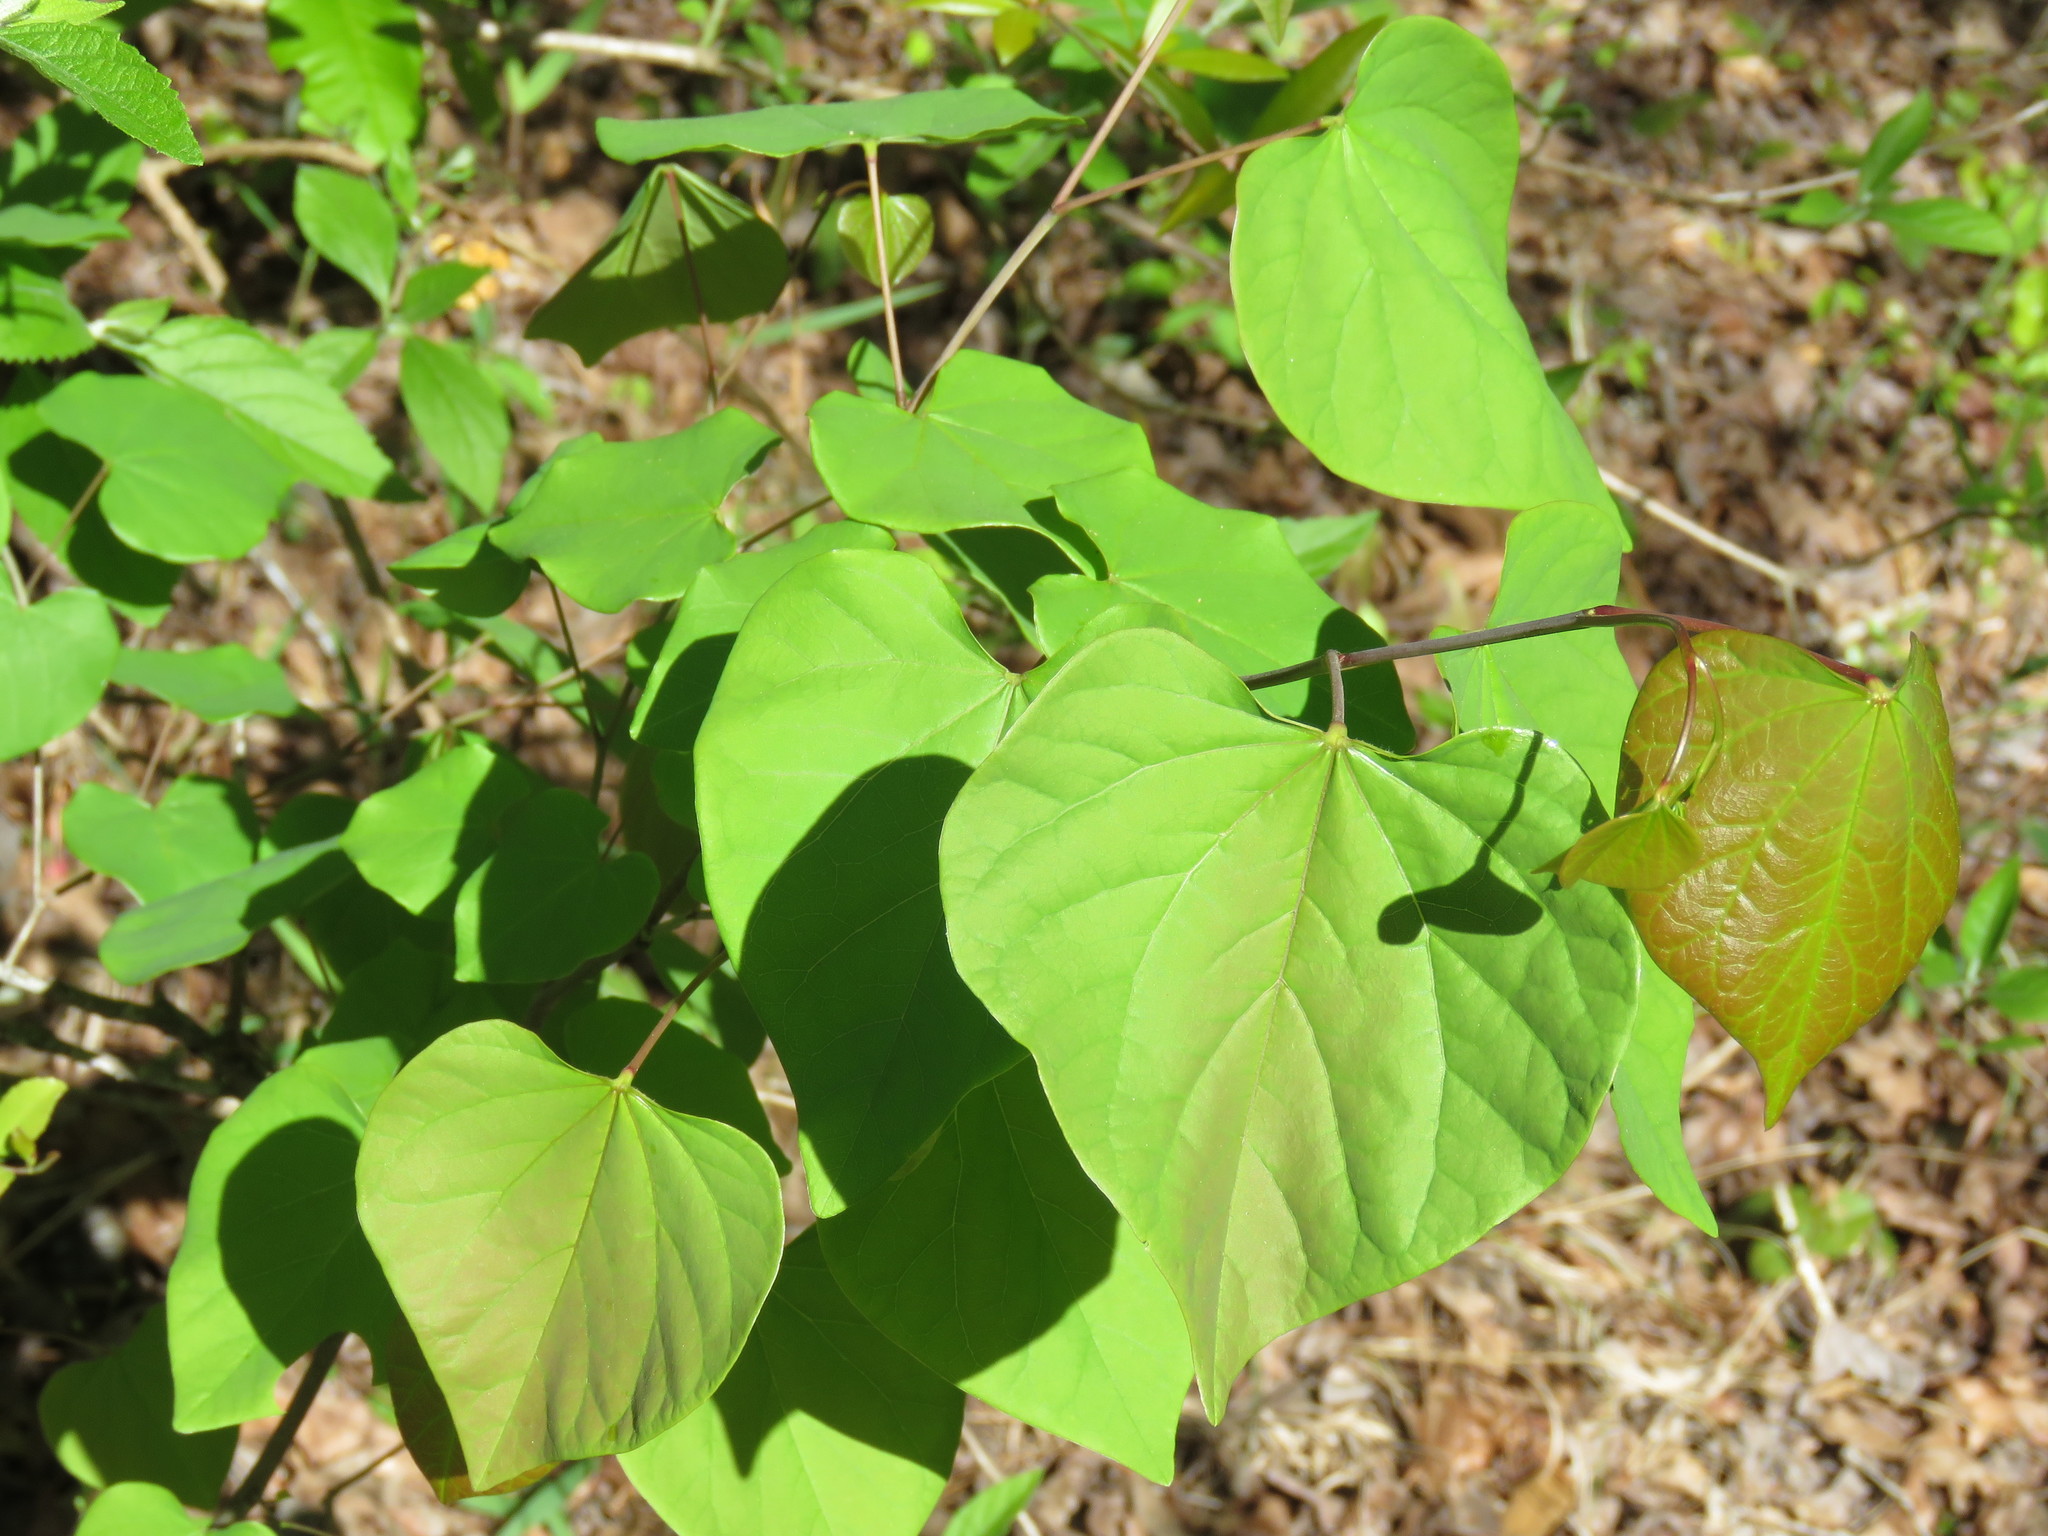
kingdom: Plantae
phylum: Tracheophyta
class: Magnoliopsida
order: Fabales
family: Fabaceae
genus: Cercis
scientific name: Cercis canadensis
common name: Eastern redbud
